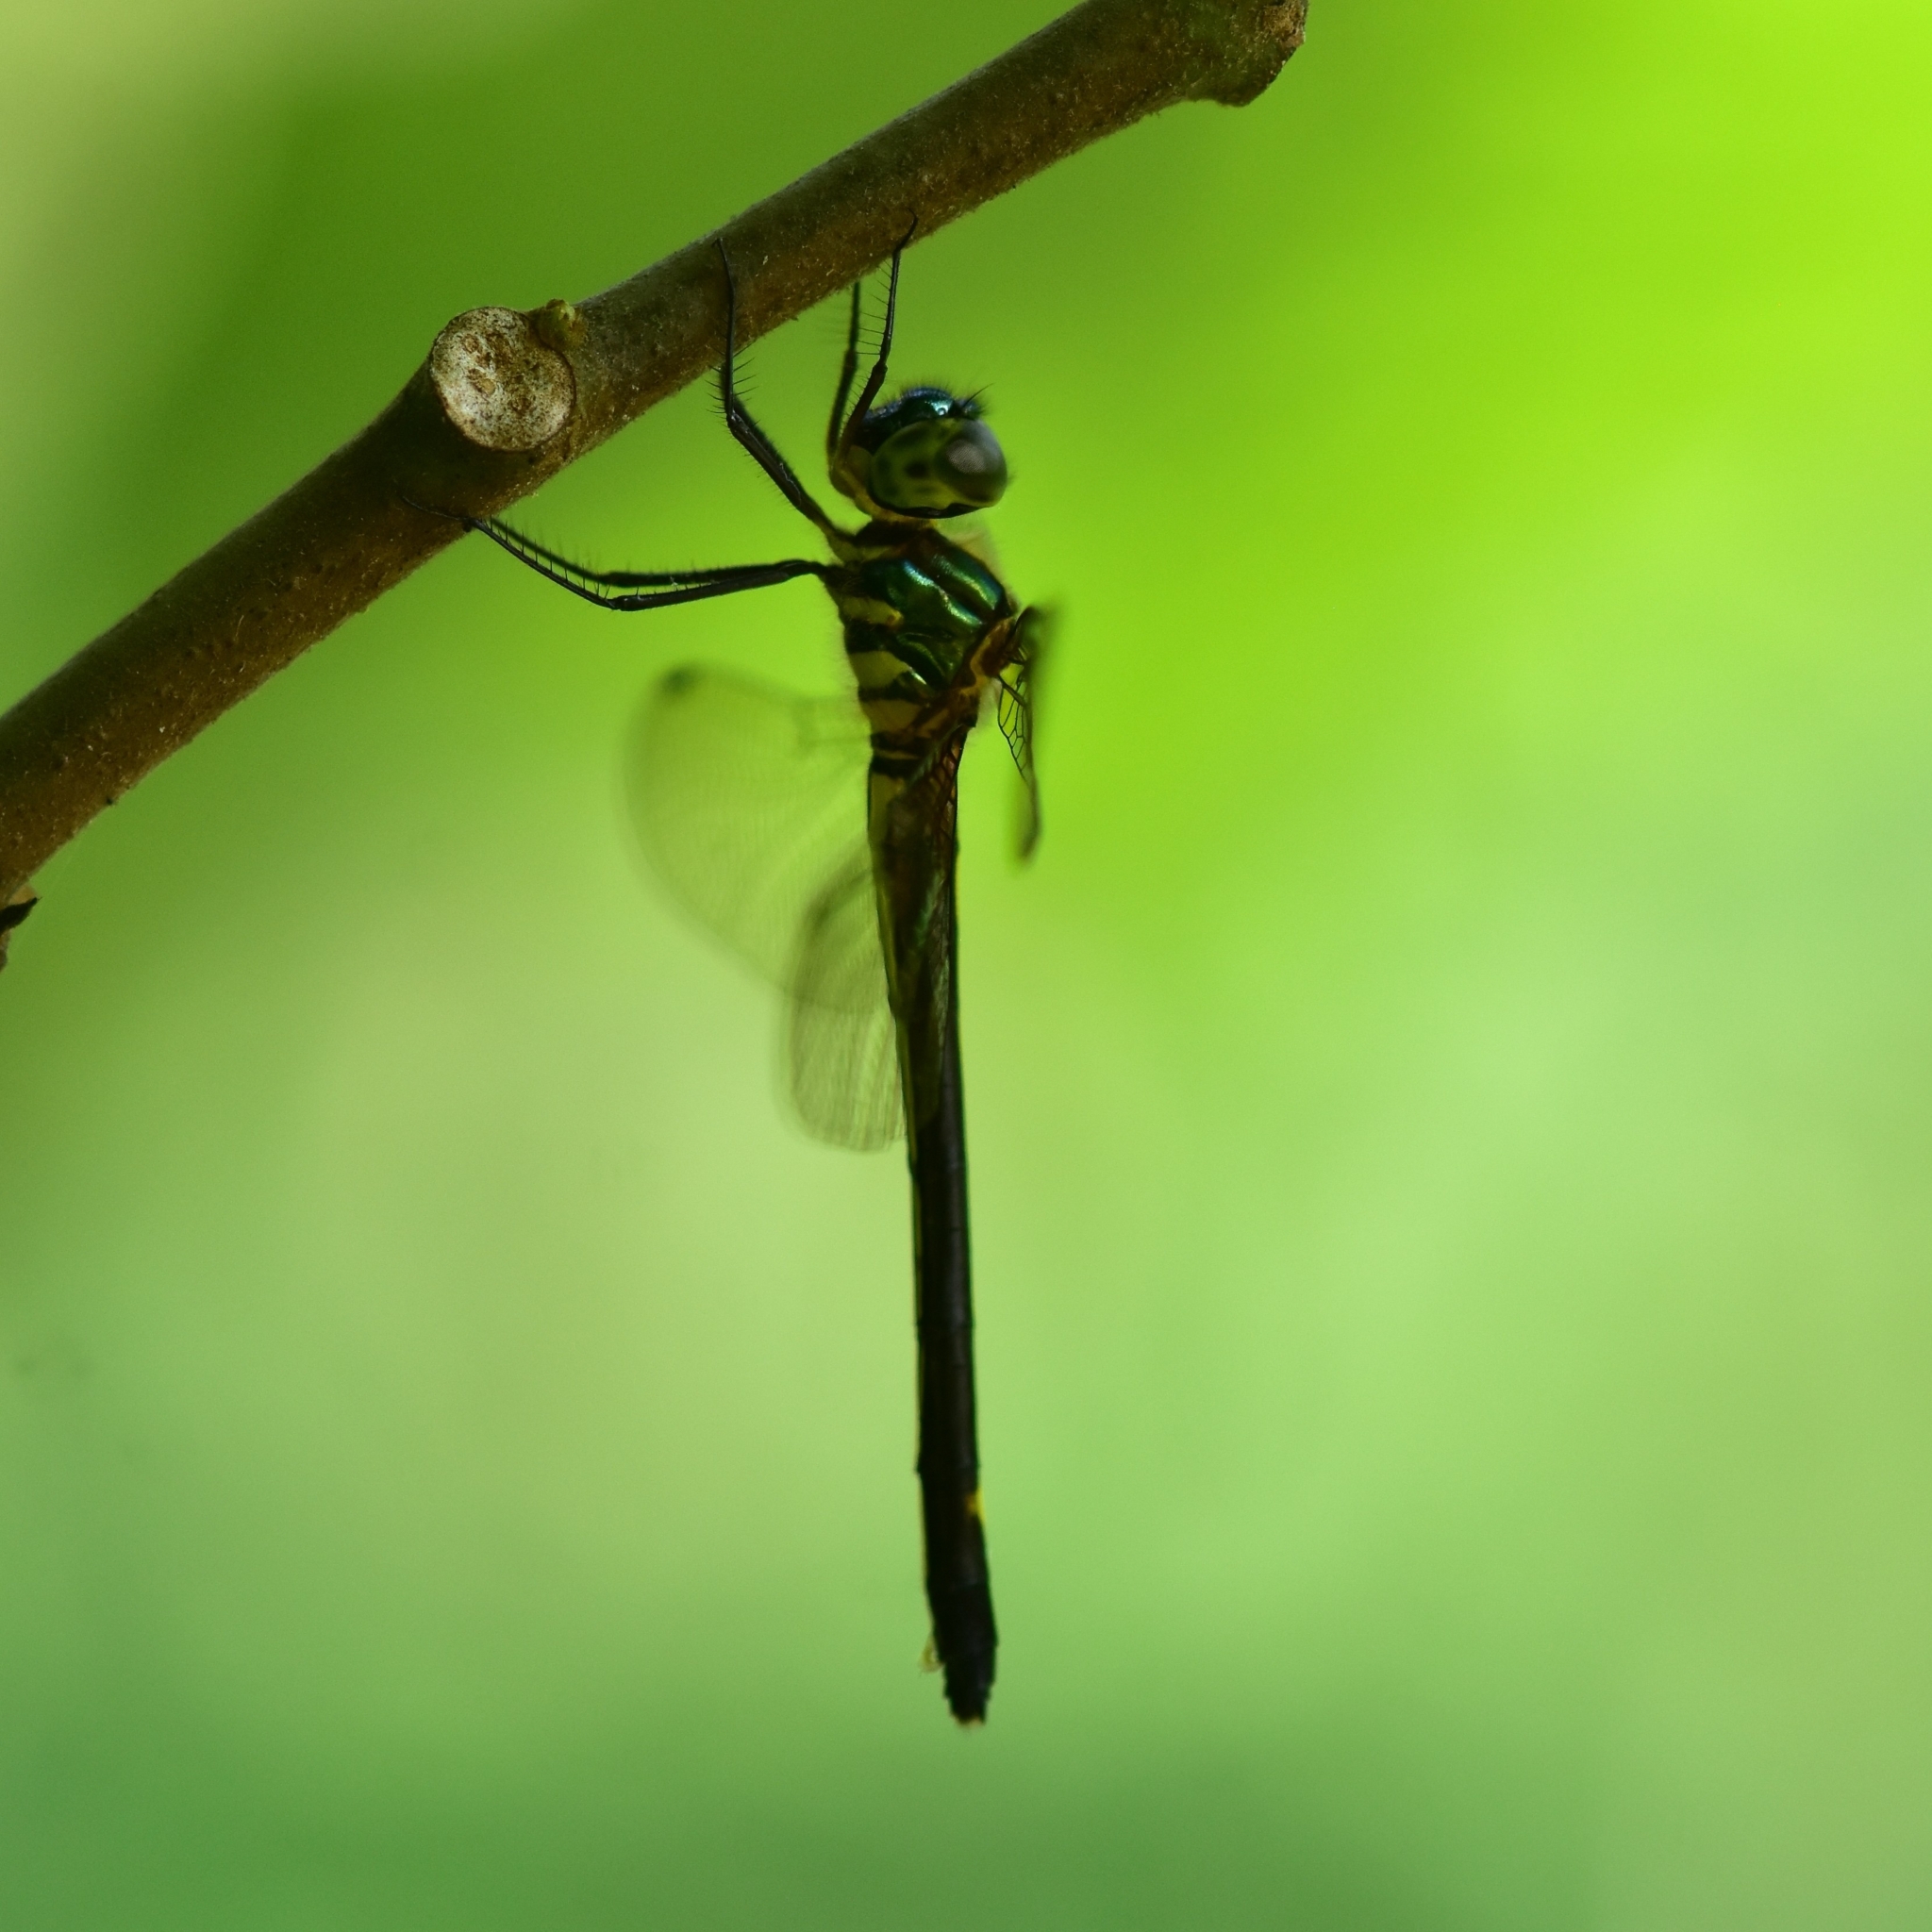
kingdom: Animalia
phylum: Arthropoda
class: Insecta
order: Odonata
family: Corduliidae
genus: Macromidia
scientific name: Macromidia donaldi
